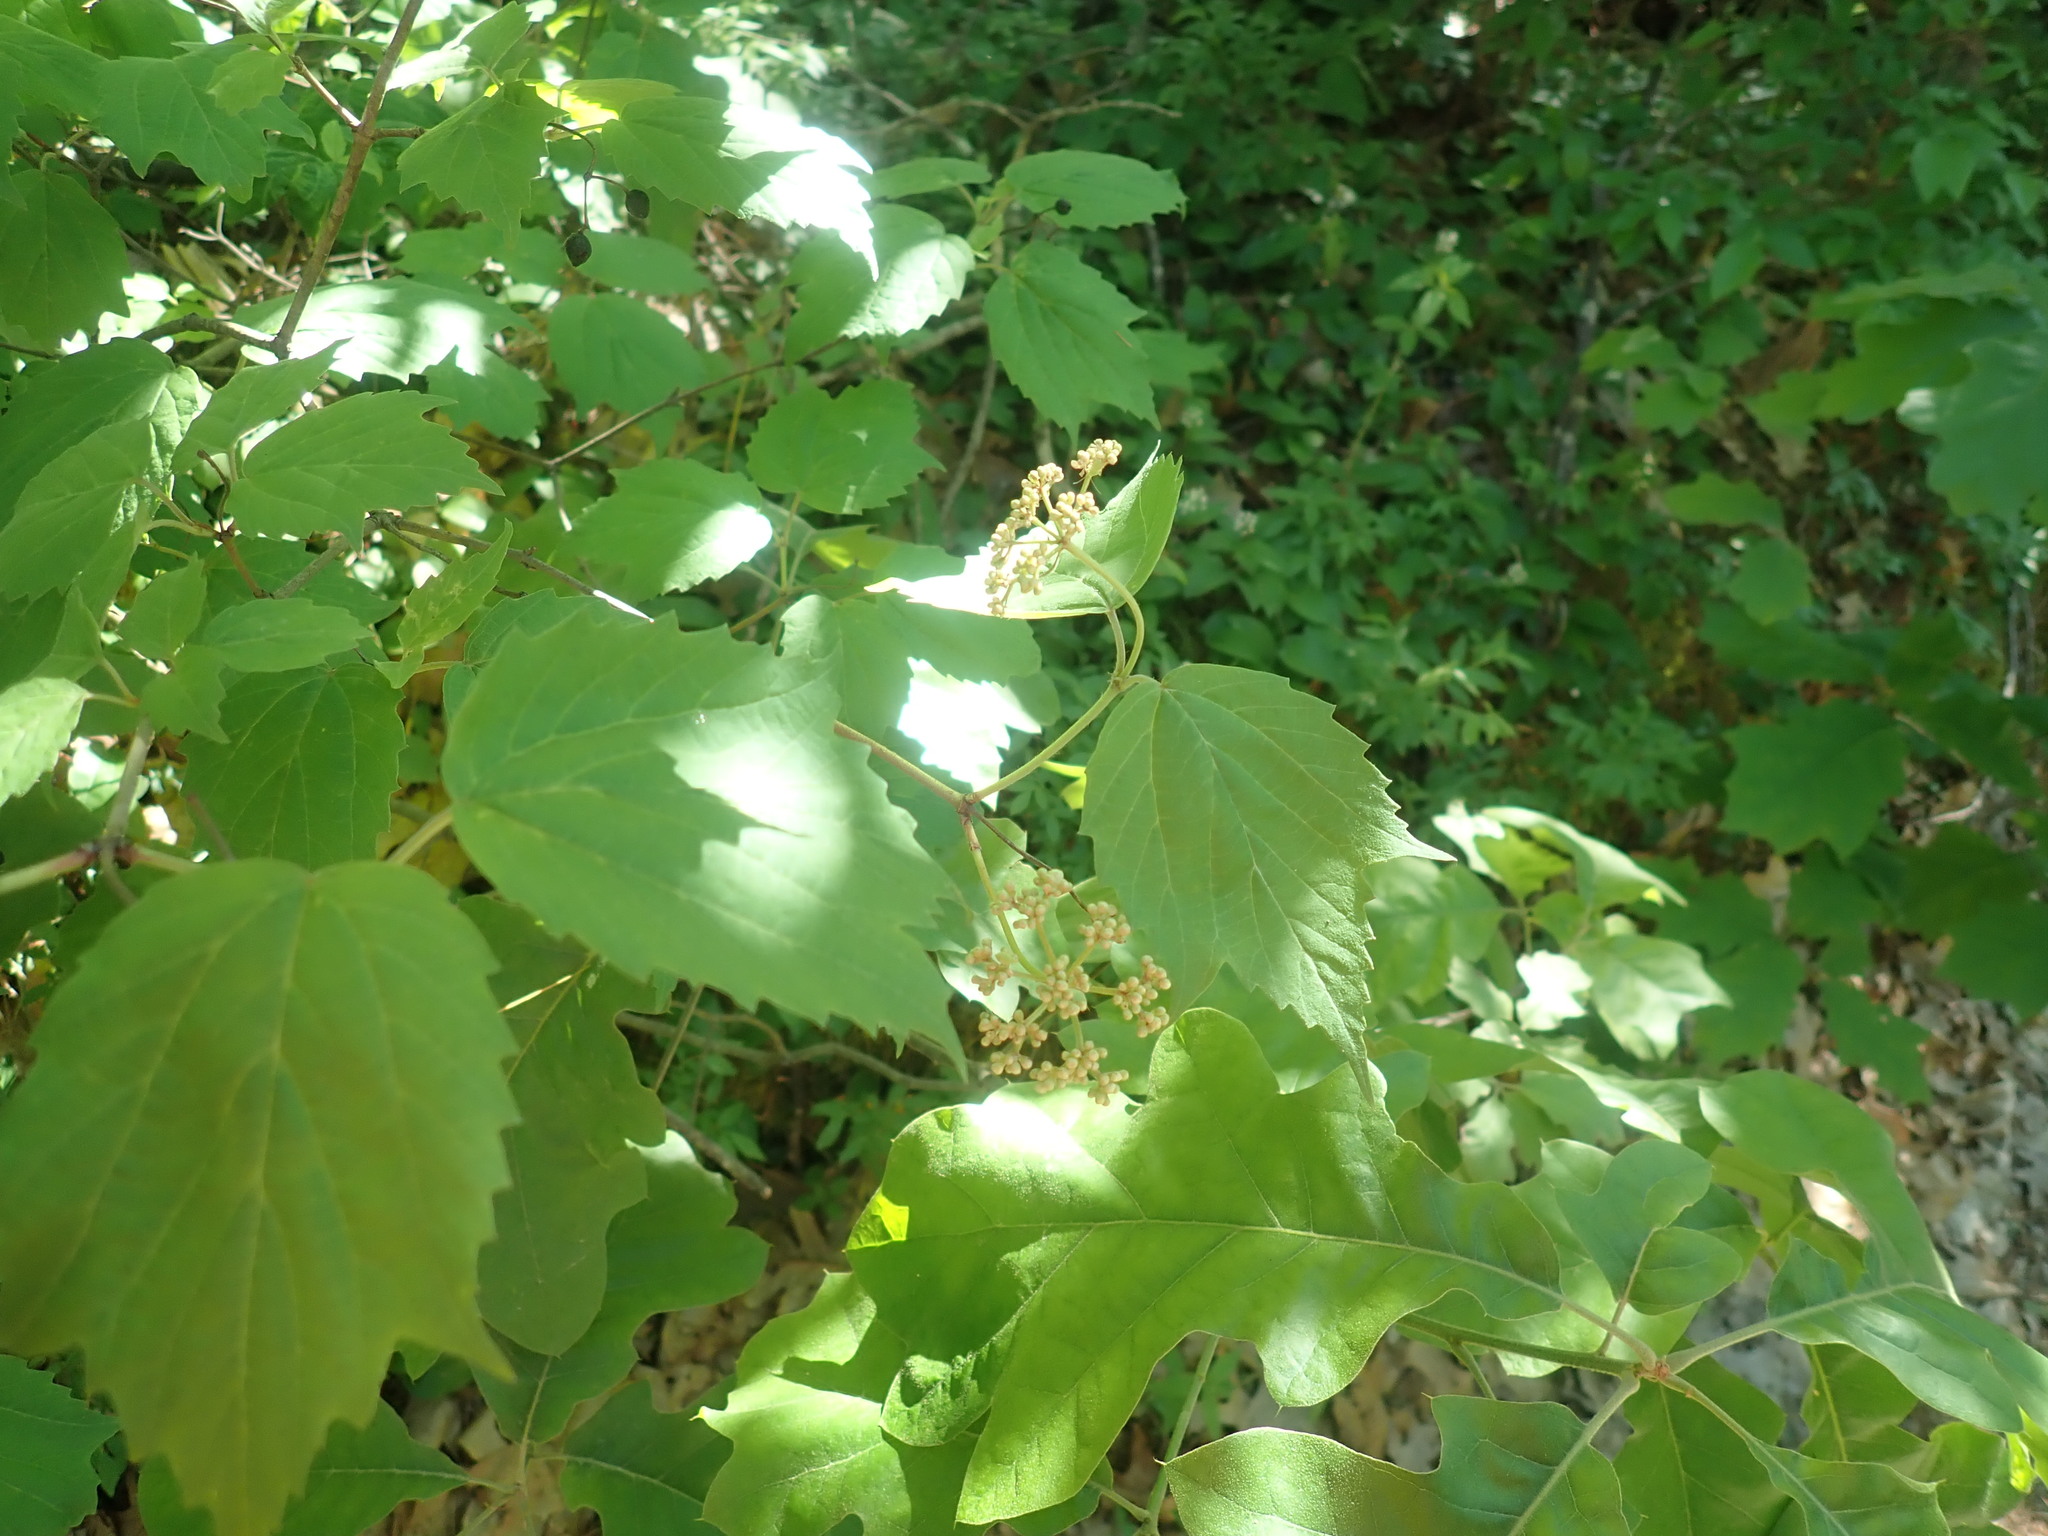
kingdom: Plantae
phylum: Tracheophyta
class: Magnoliopsida
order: Dipsacales
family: Viburnaceae
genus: Viburnum
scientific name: Viburnum acerifolium
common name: Dockmackie
